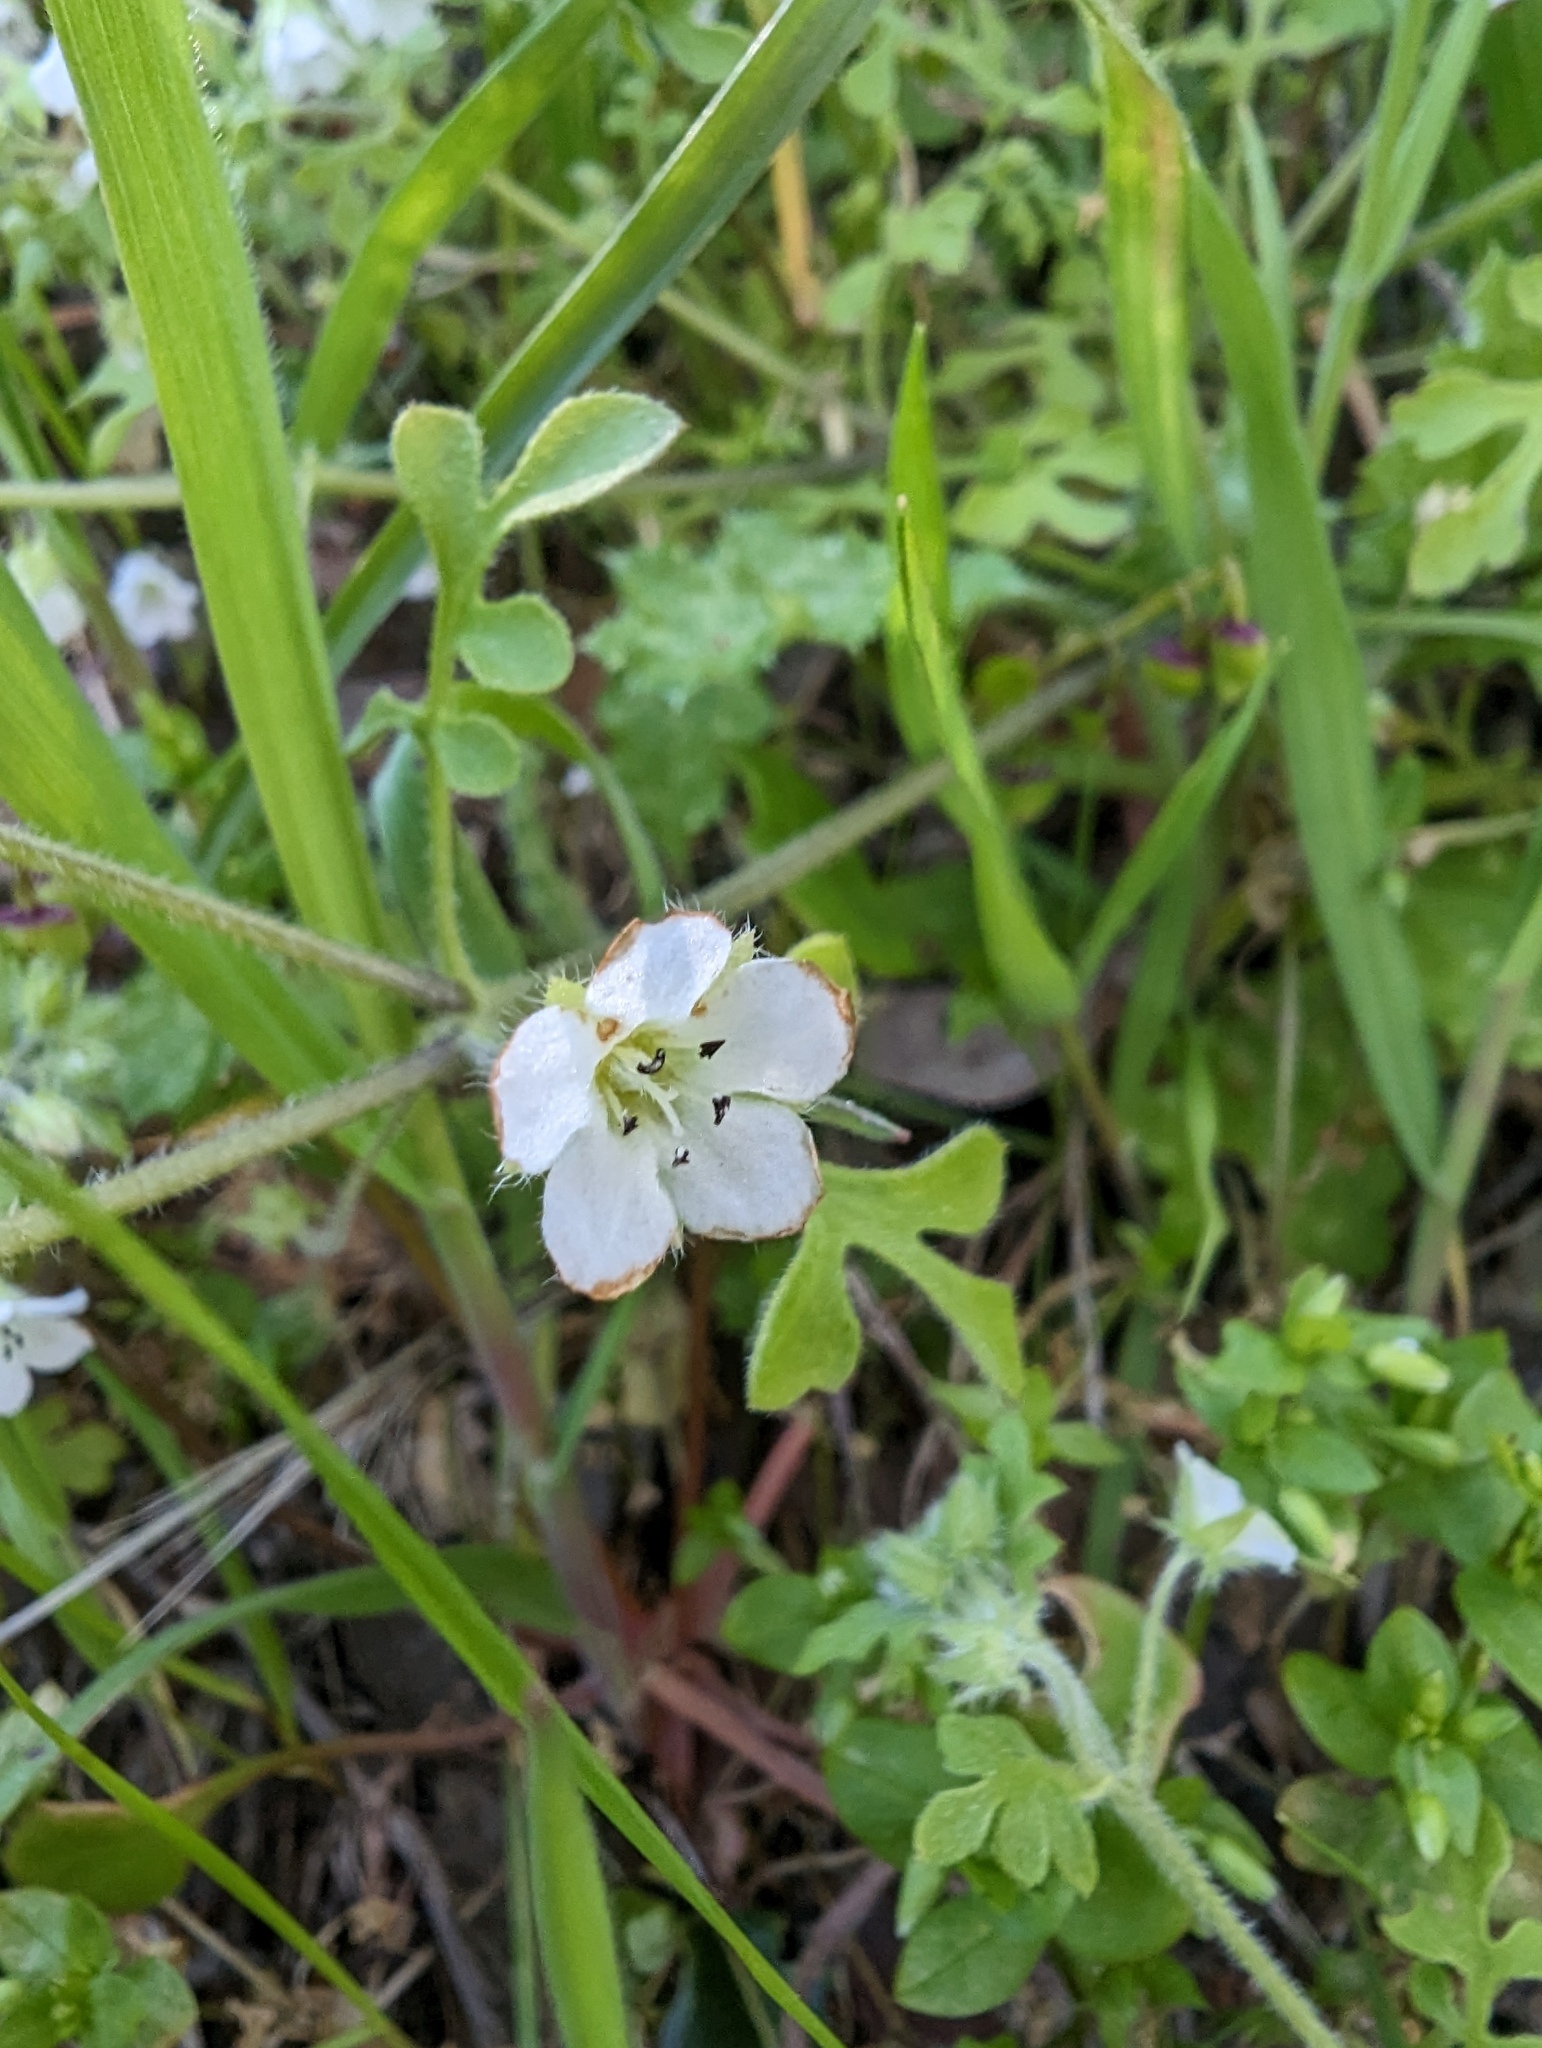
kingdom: Plantae
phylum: Tracheophyta
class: Magnoliopsida
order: Boraginales
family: Hydrophyllaceae
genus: Nemophila
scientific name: Nemophila heterophylla
